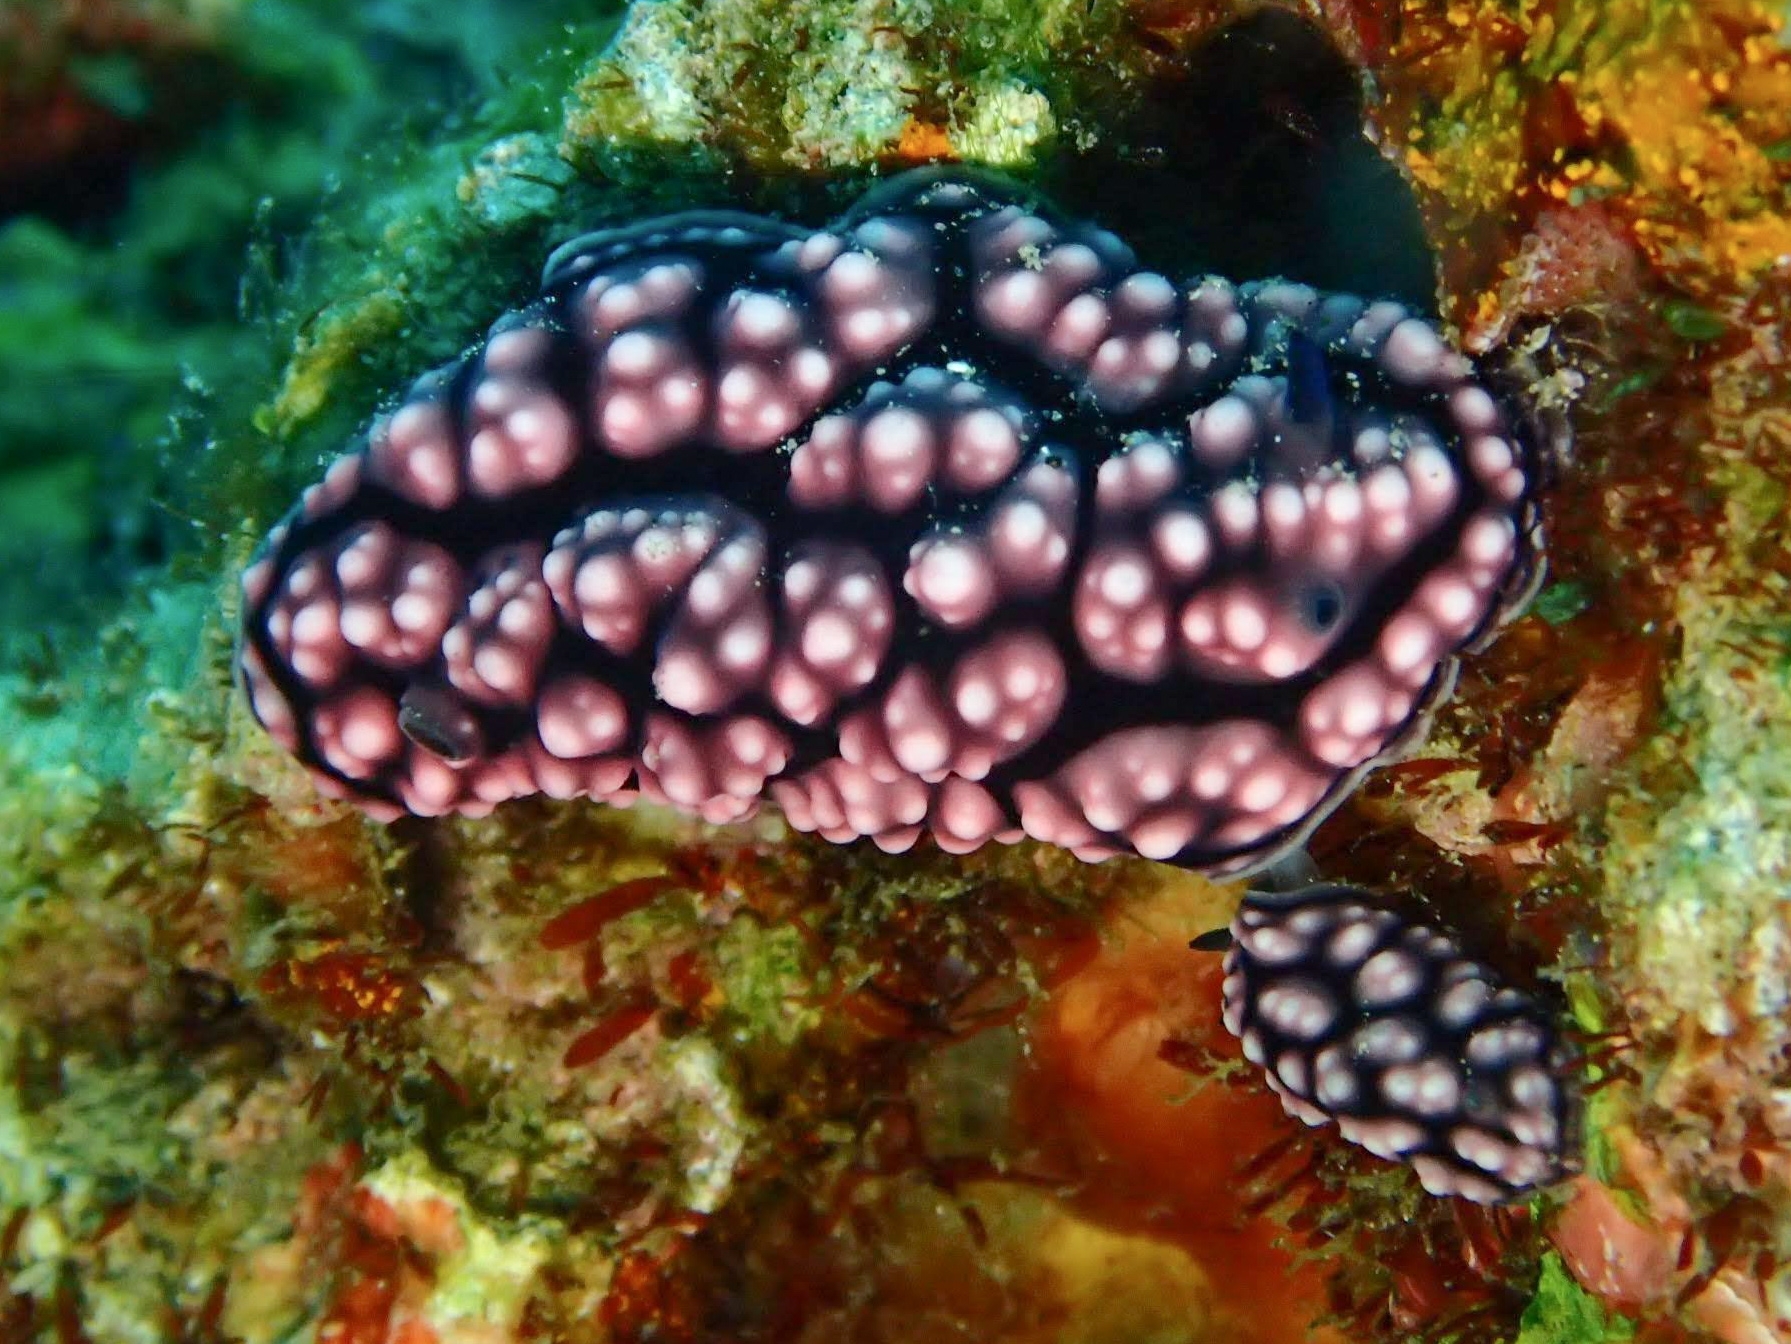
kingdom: Animalia
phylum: Mollusca
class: Gastropoda
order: Nudibranchia
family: Phyllidiidae
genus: Phyllidiella
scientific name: Phyllidiella pustulosa
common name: Pustular phyllidia
